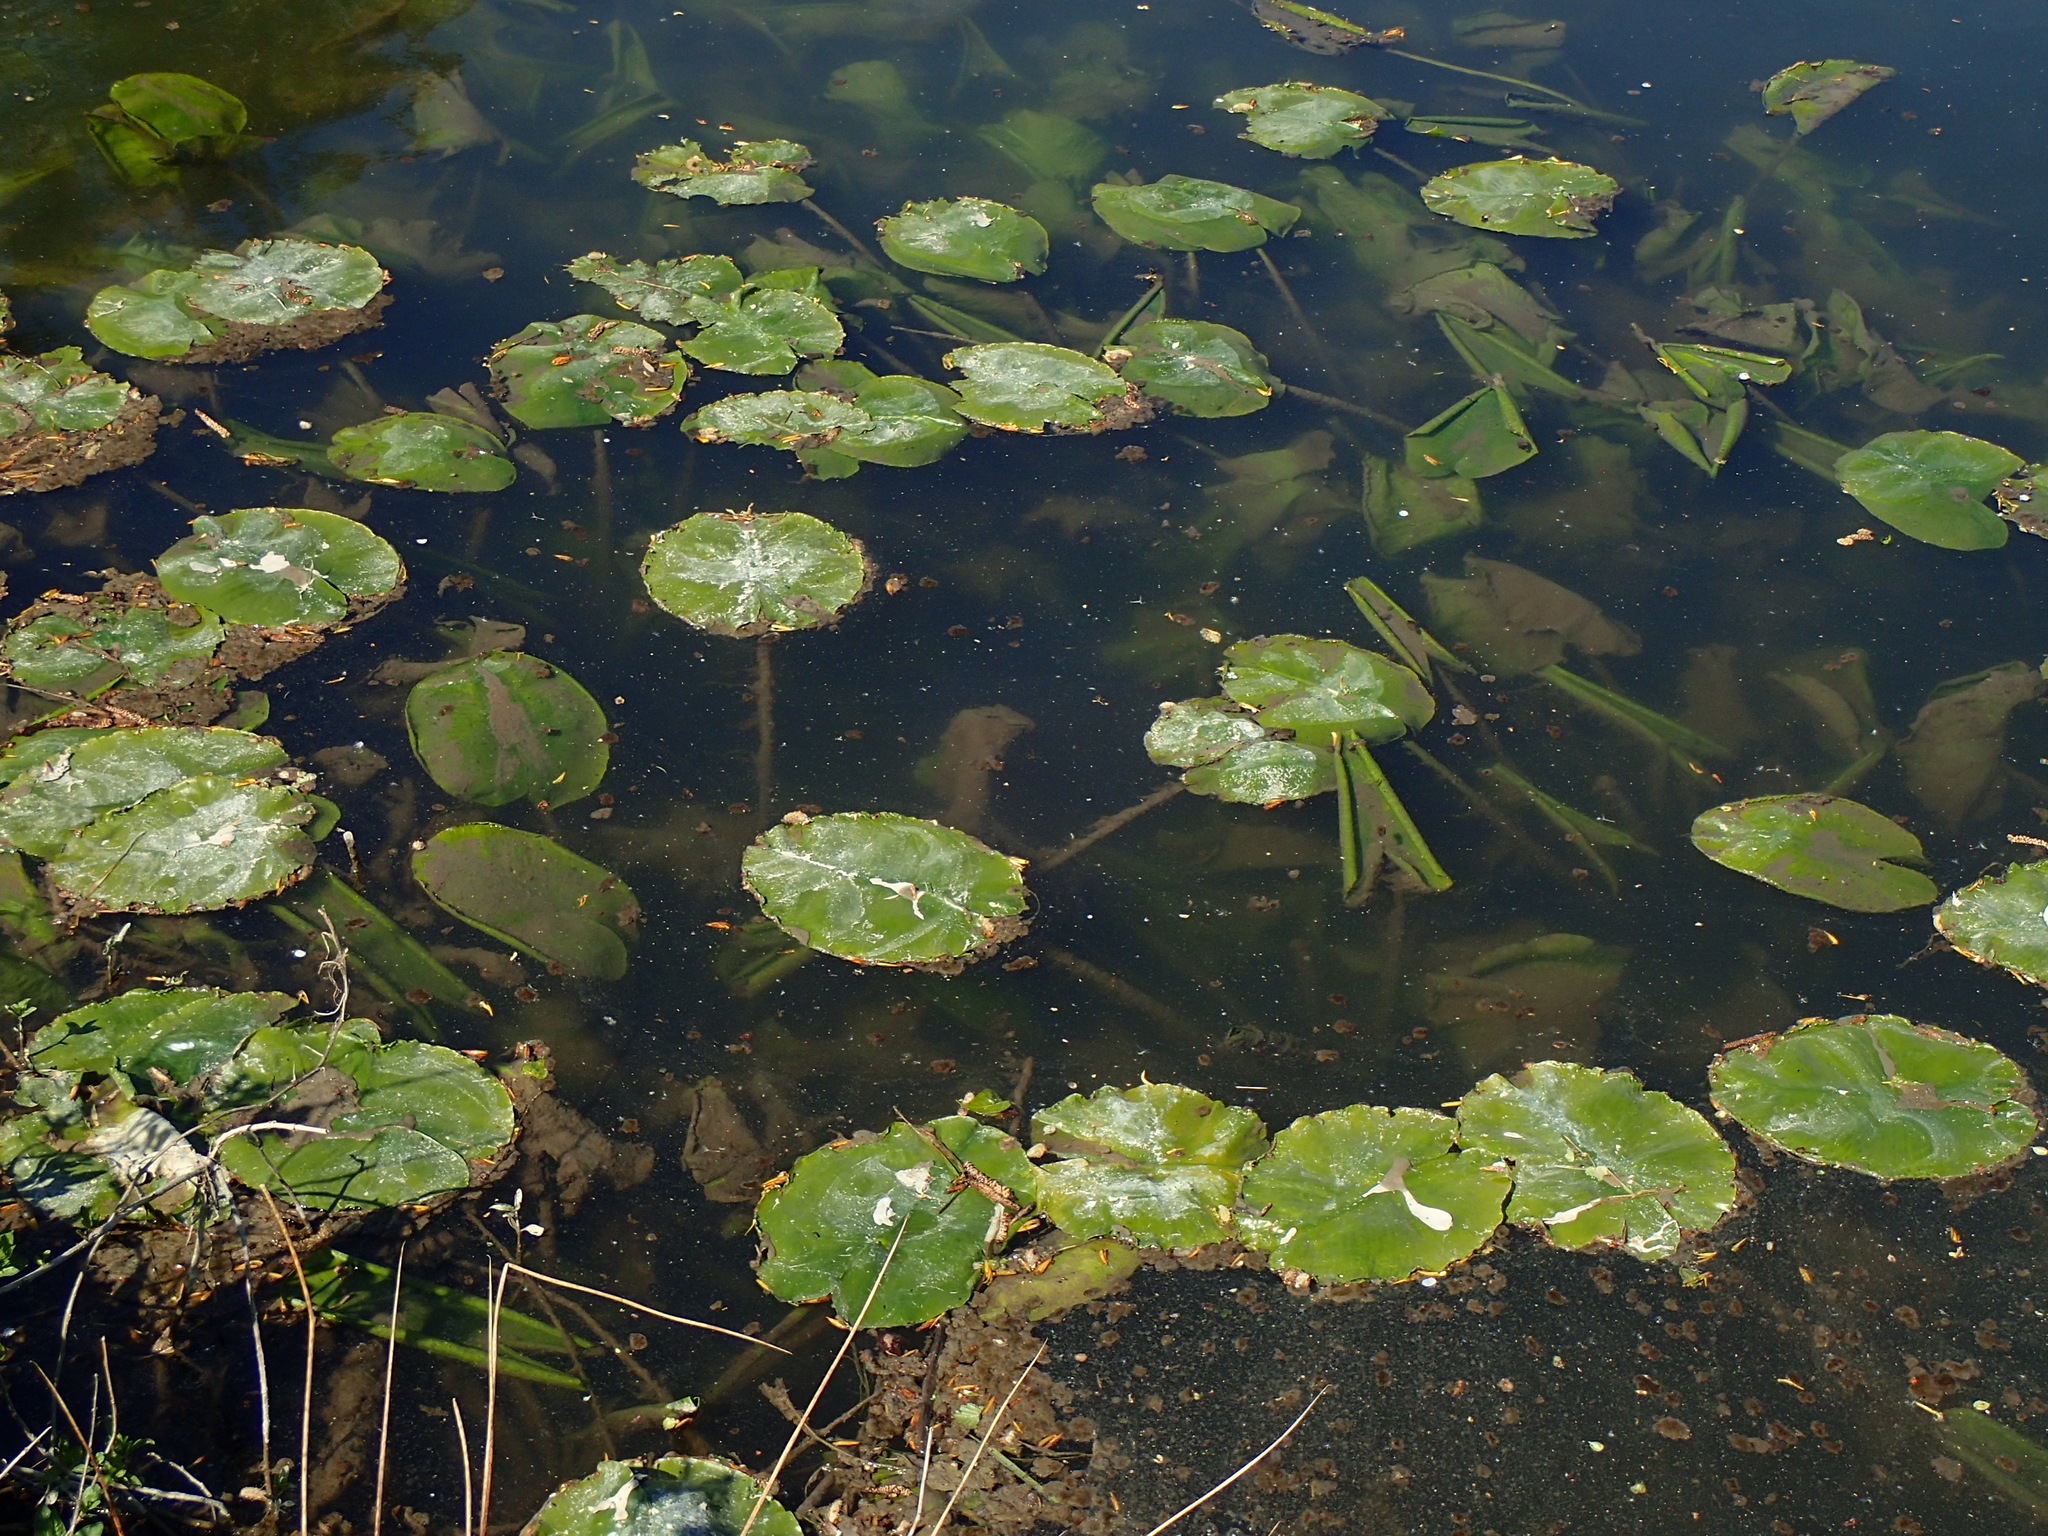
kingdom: Plantae
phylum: Tracheophyta
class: Magnoliopsida
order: Nymphaeales
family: Nymphaeaceae
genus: Nuphar
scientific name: Nuphar lutea
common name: Yellow water-lily
